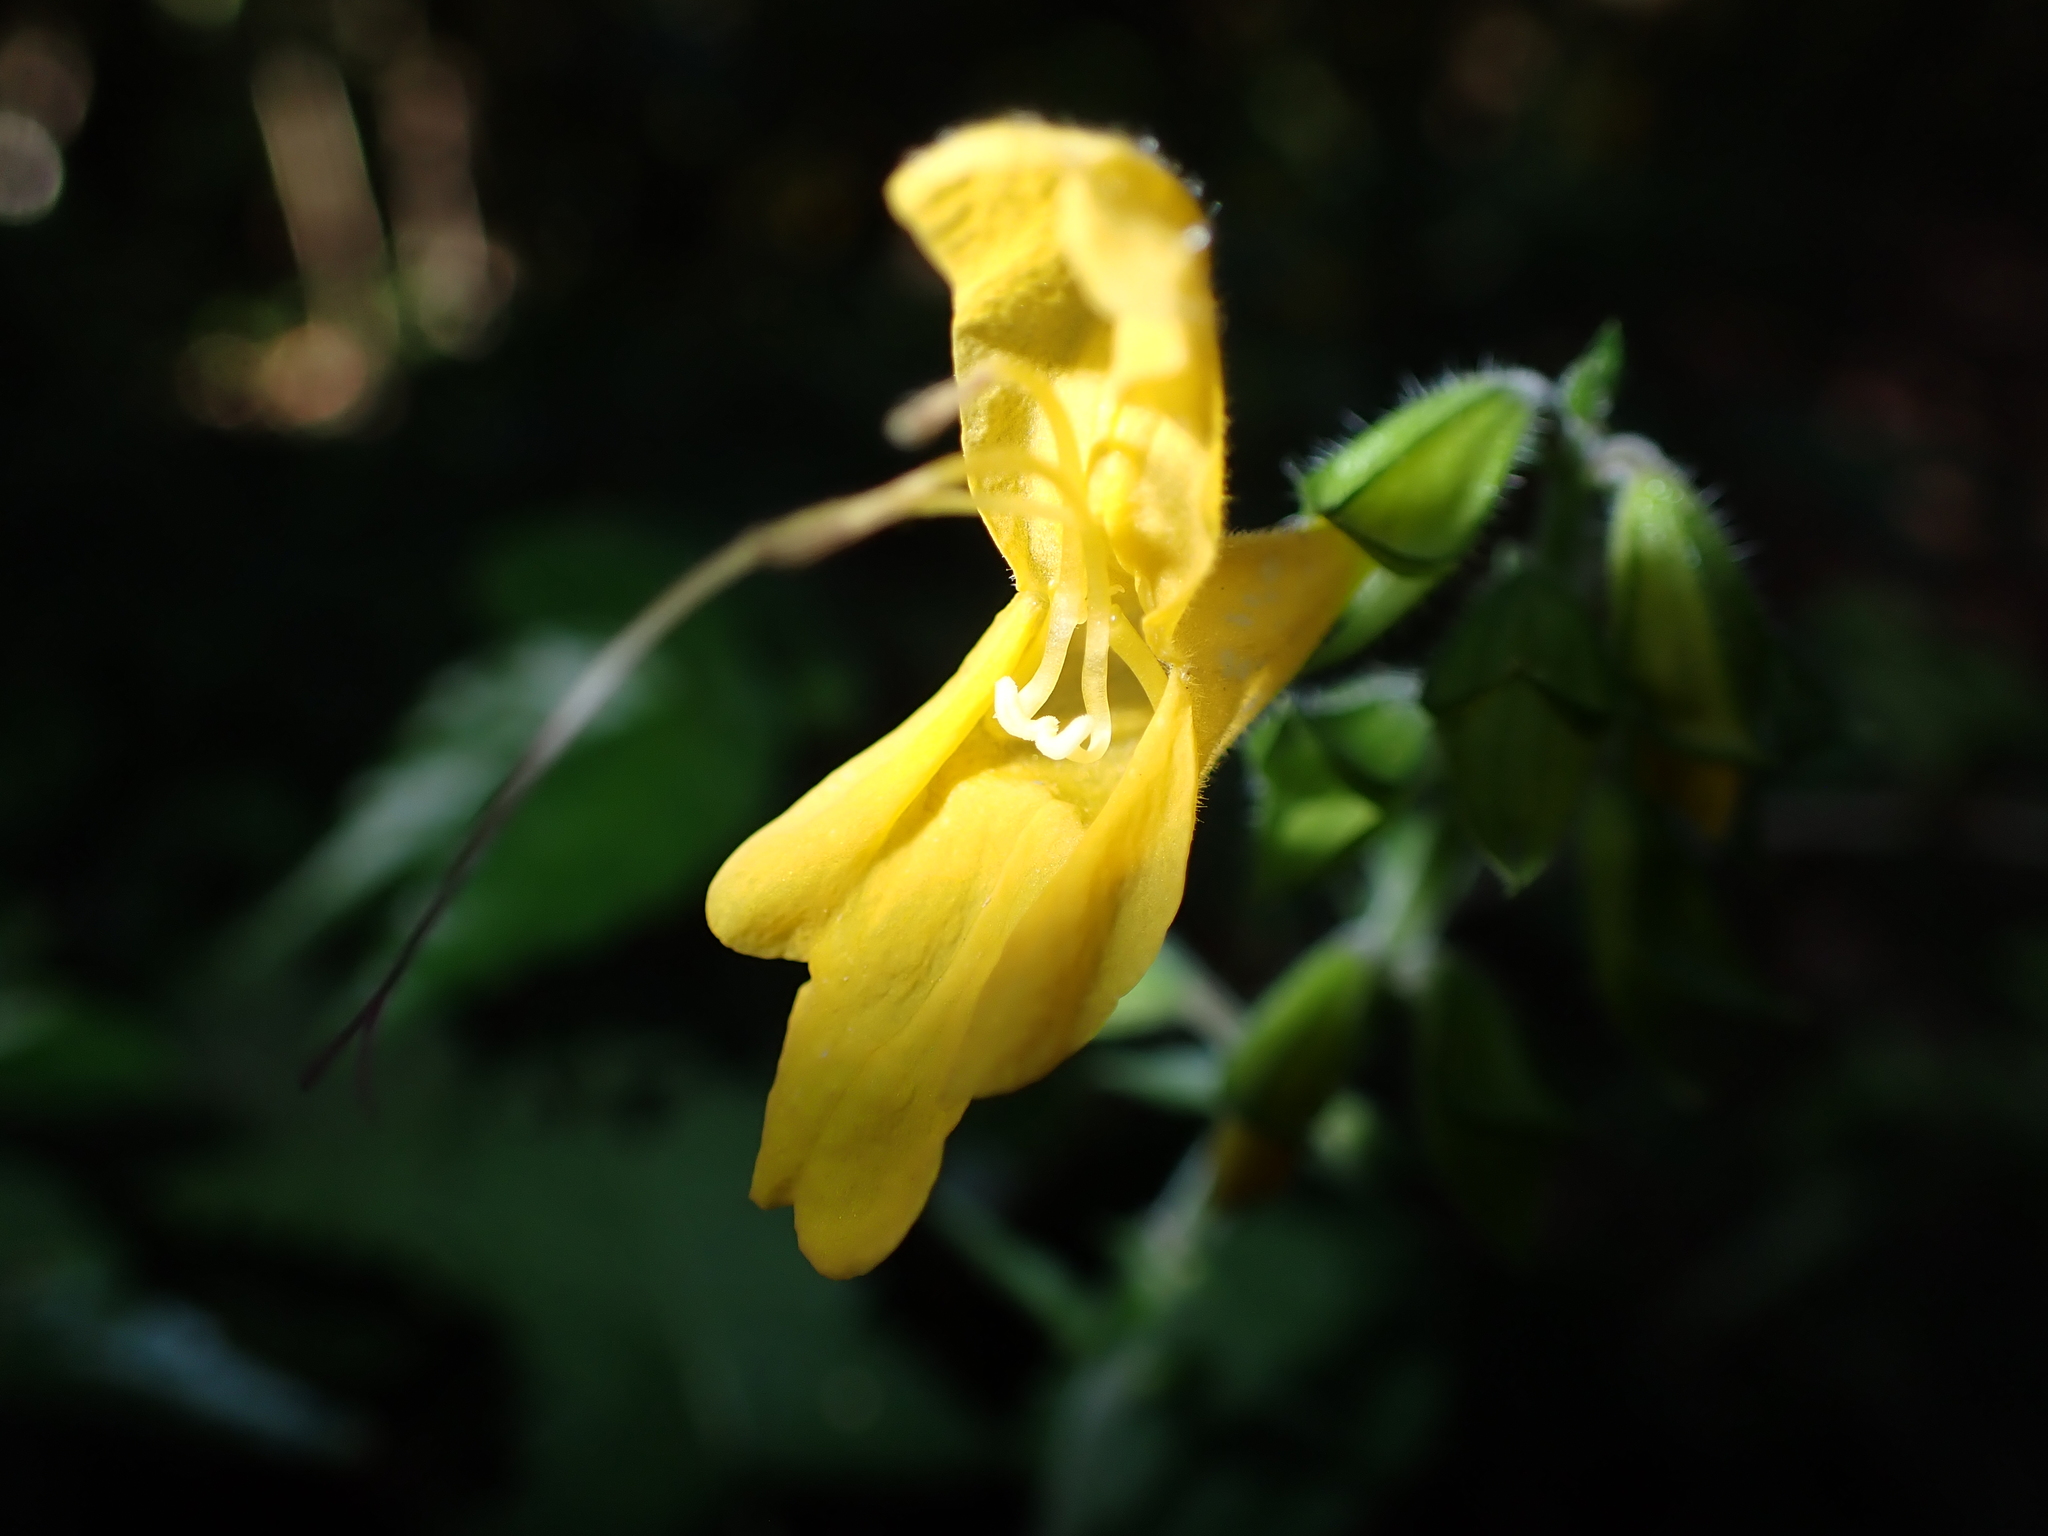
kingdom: Plantae
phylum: Tracheophyta
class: Magnoliopsida
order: Lamiales
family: Lamiaceae
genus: Salvia
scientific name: Salvia japonica
